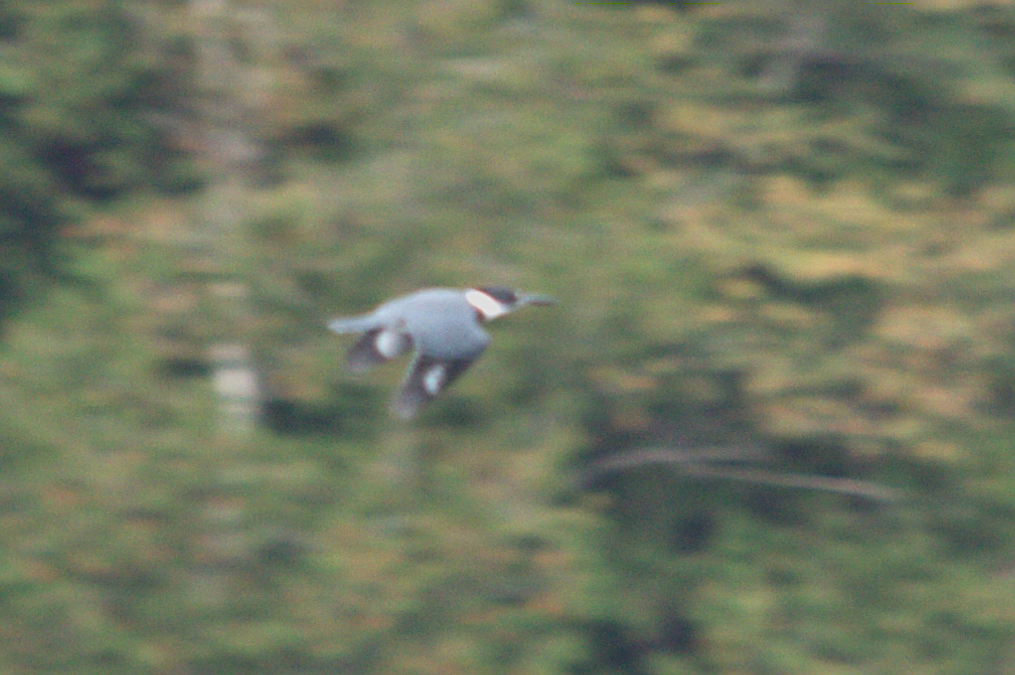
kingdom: Animalia
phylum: Chordata
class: Aves
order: Coraciiformes
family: Alcedinidae
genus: Megaceryle
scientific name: Megaceryle alcyon
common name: Belted kingfisher
